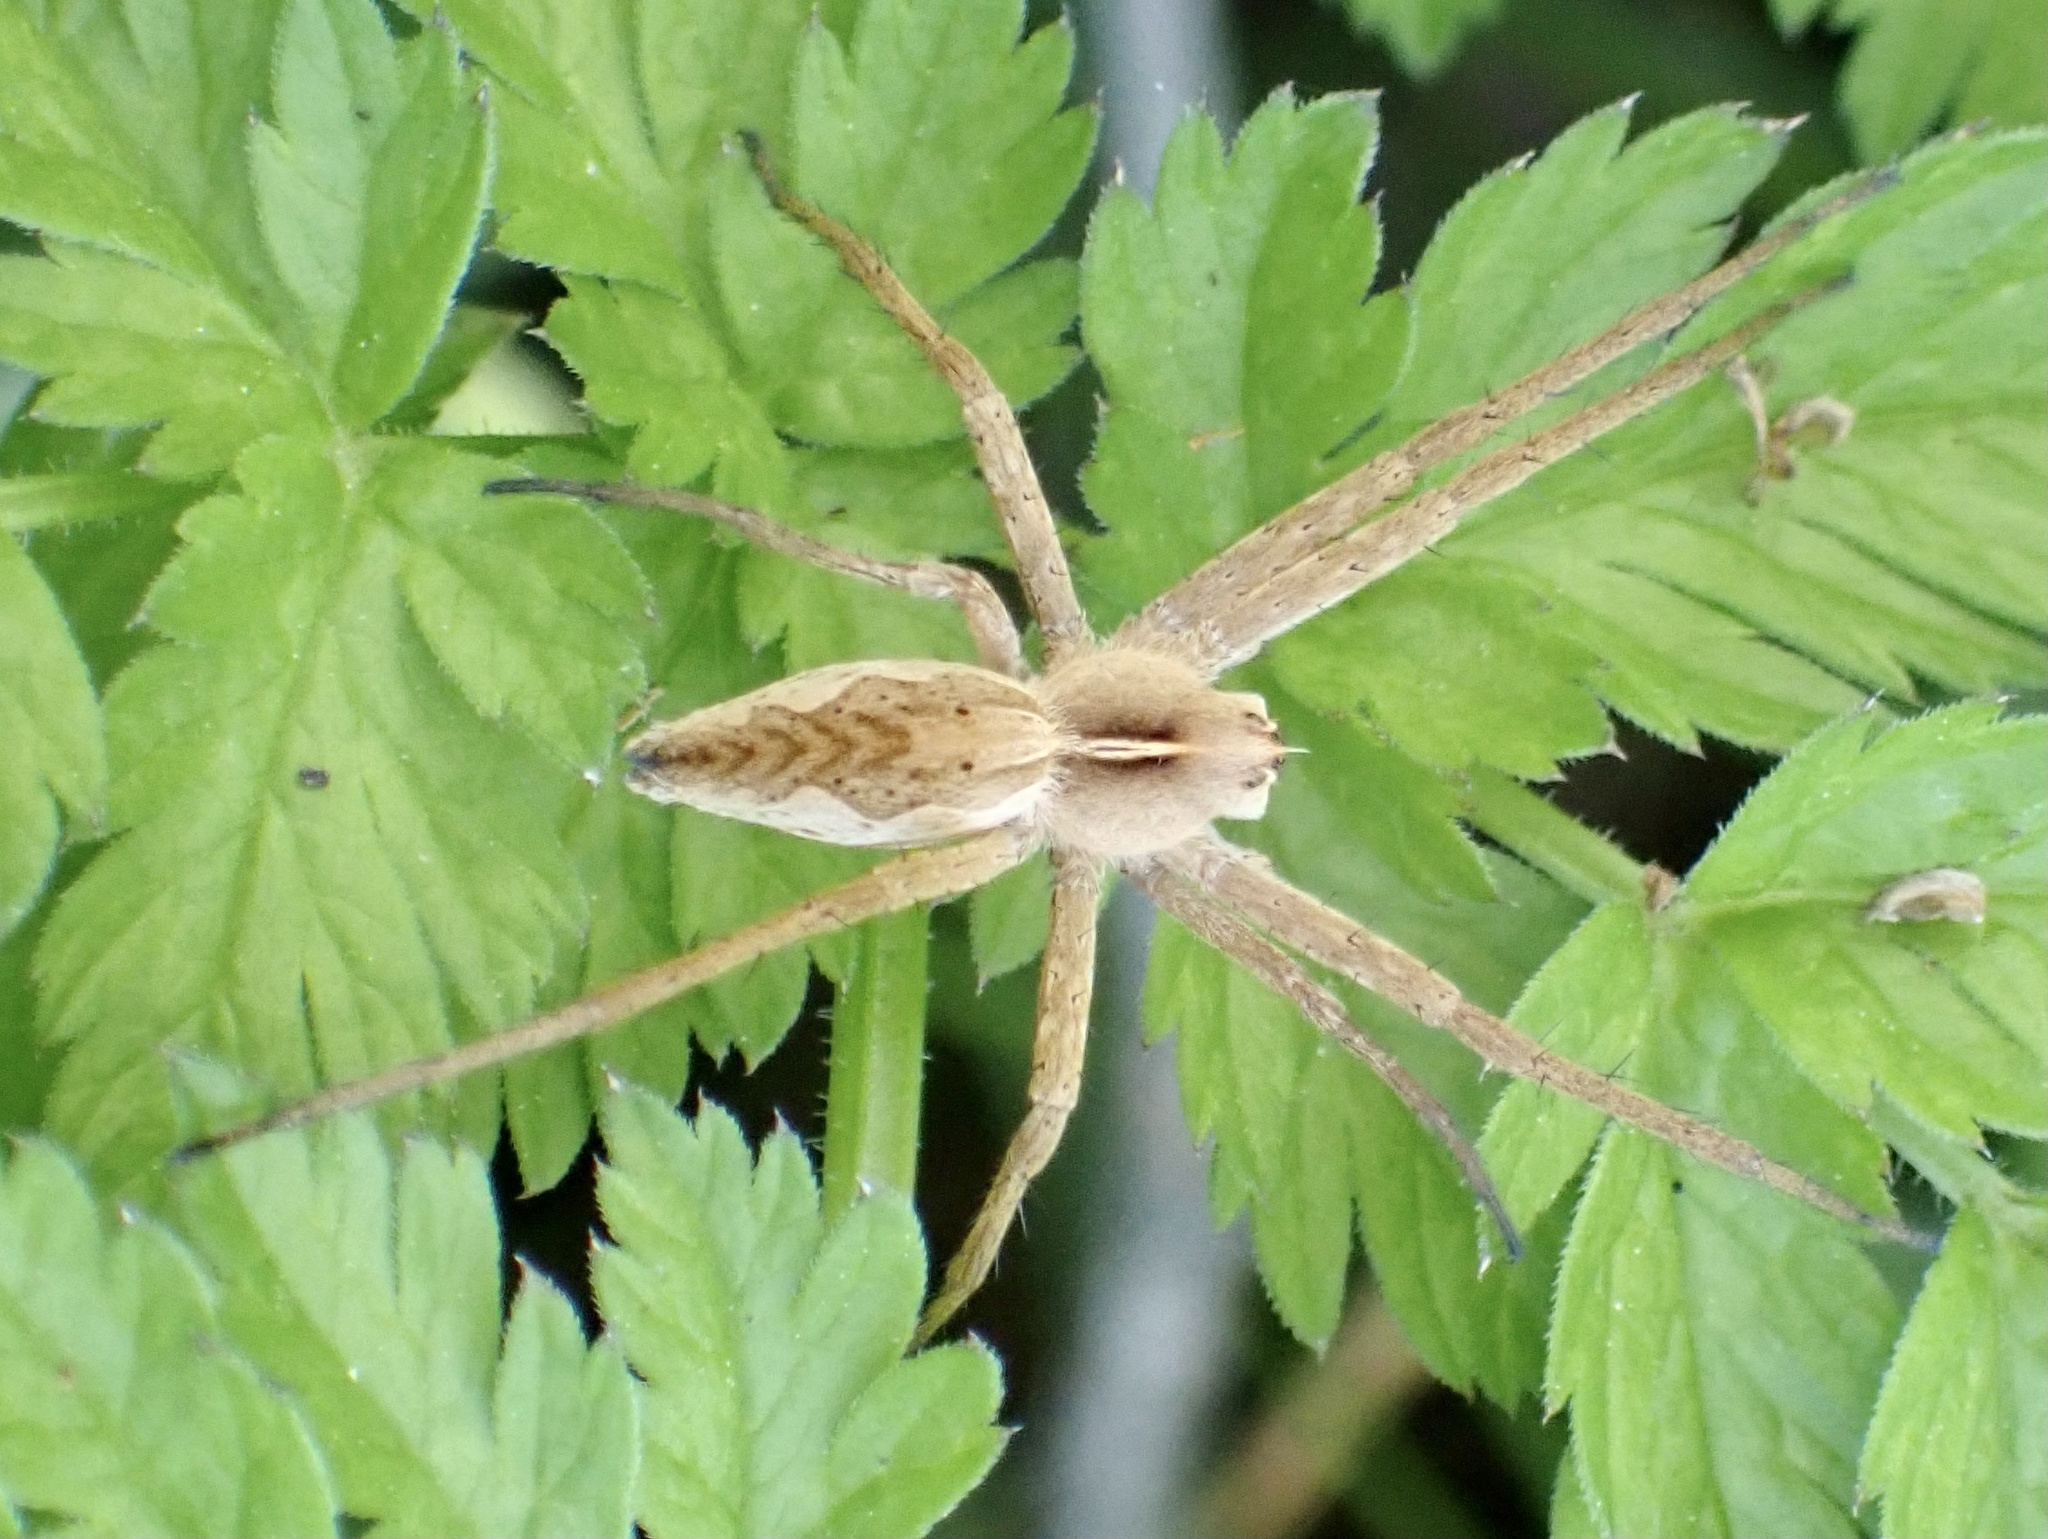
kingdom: Animalia
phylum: Arthropoda
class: Arachnida
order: Araneae
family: Pisauridae
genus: Pisaura
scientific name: Pisaura mirabilis
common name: Tent spider
